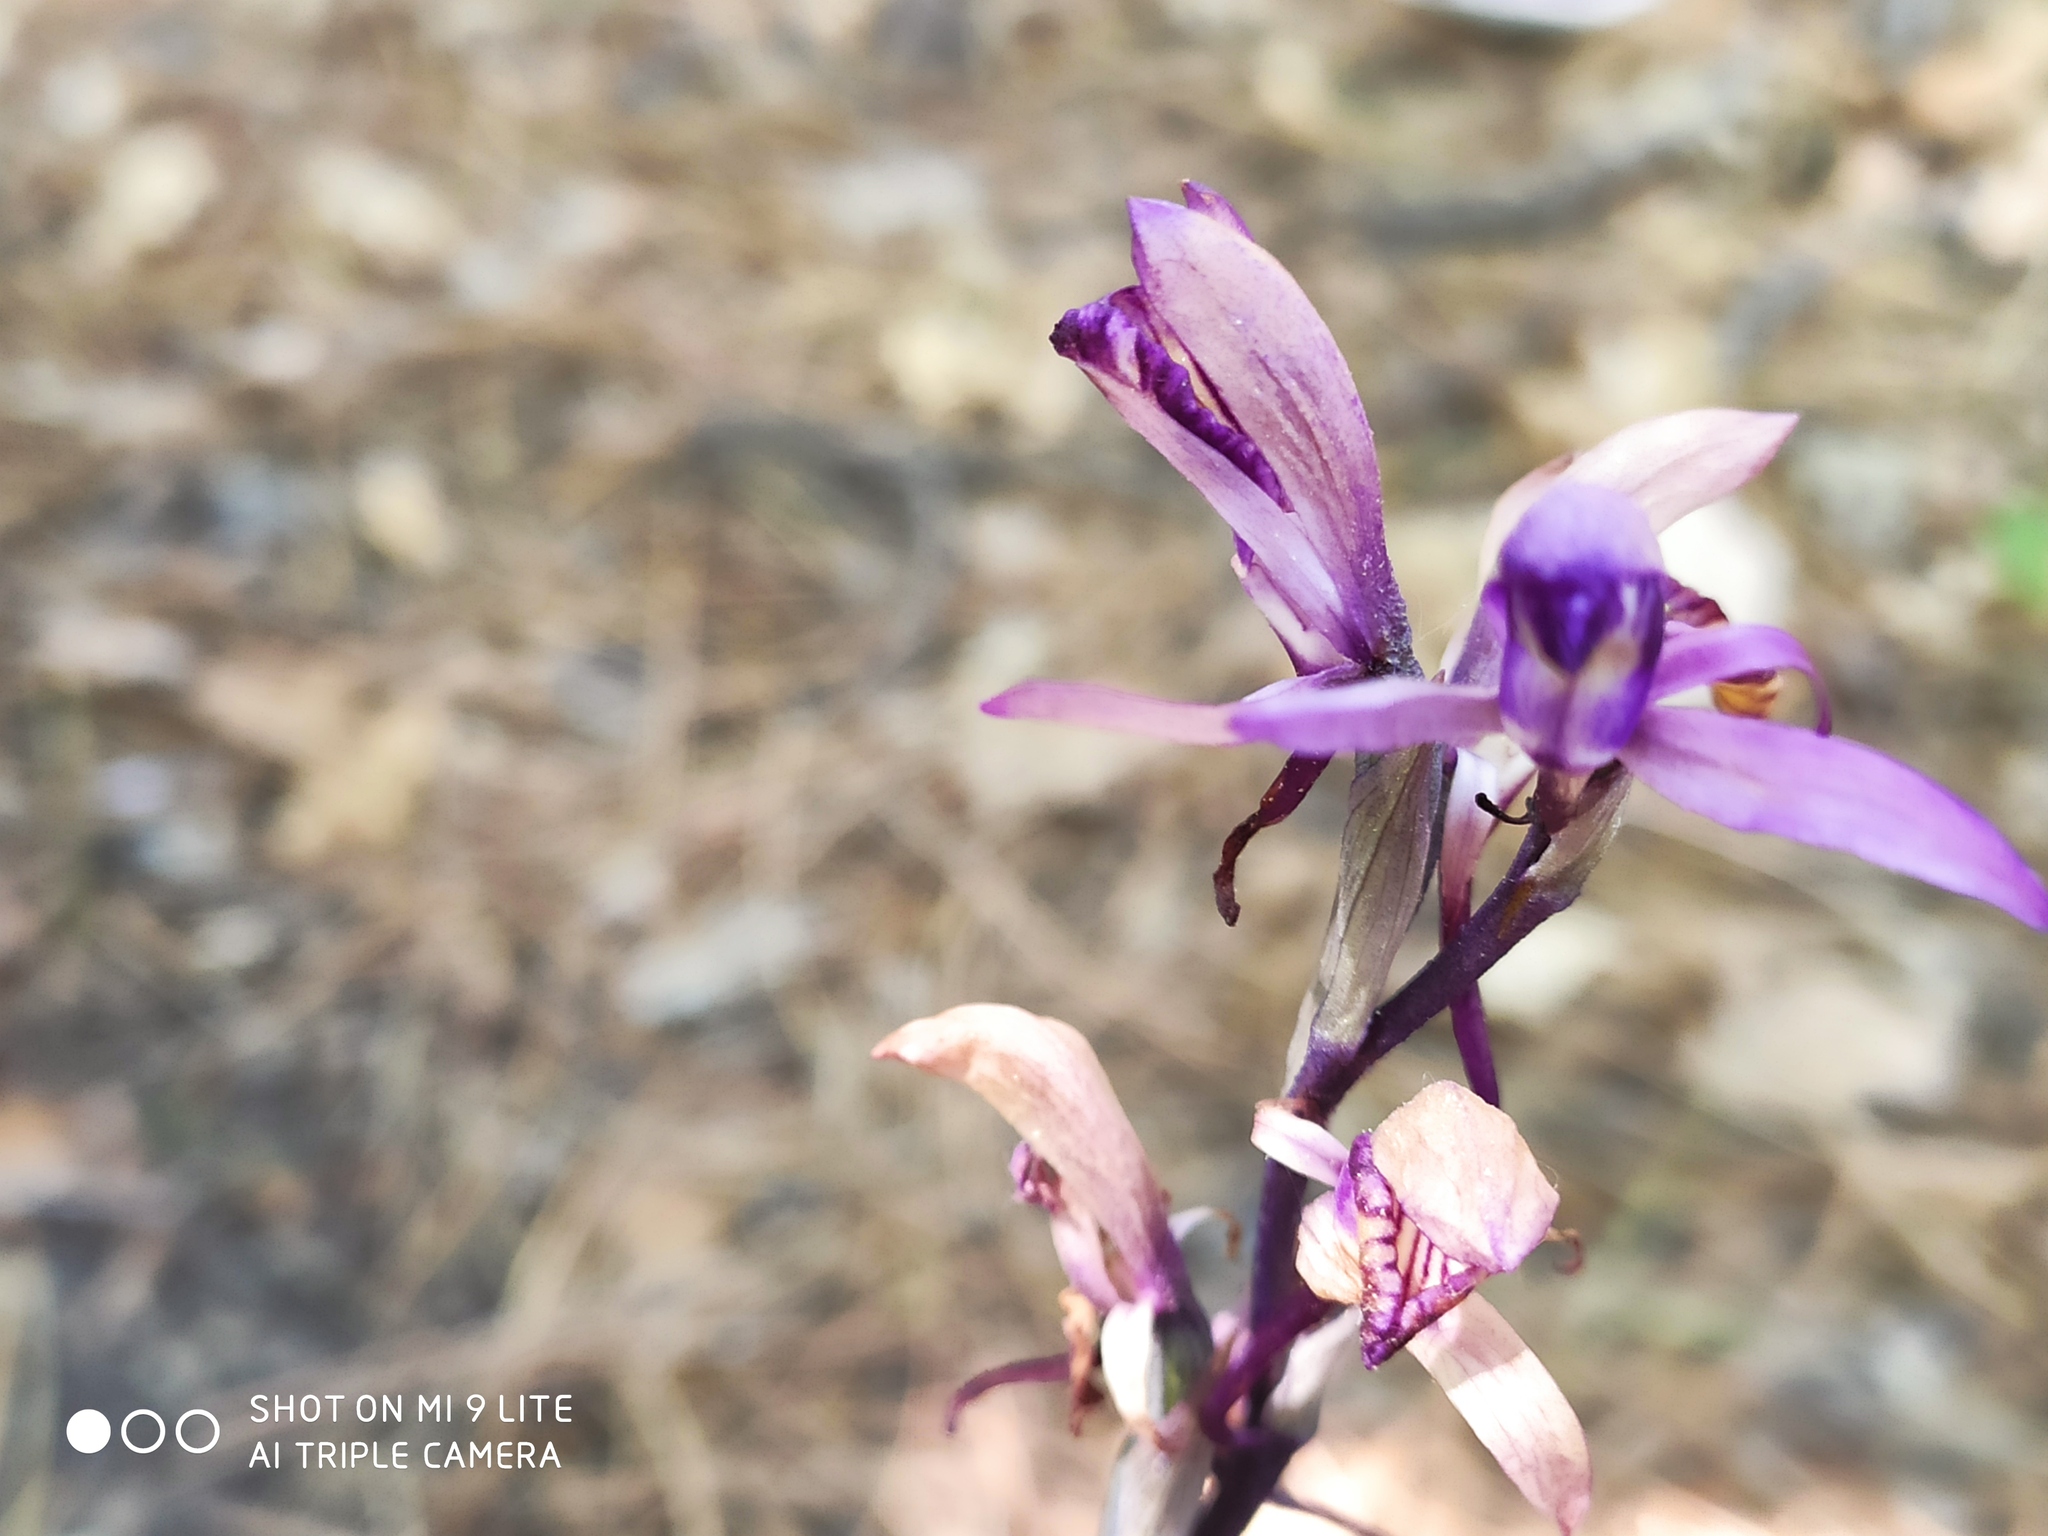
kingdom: Plantae
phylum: Tracheophyta
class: Liliopsida
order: Asparagales
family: Orchidaceae
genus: Limodorum
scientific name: Limodorum abortivum
